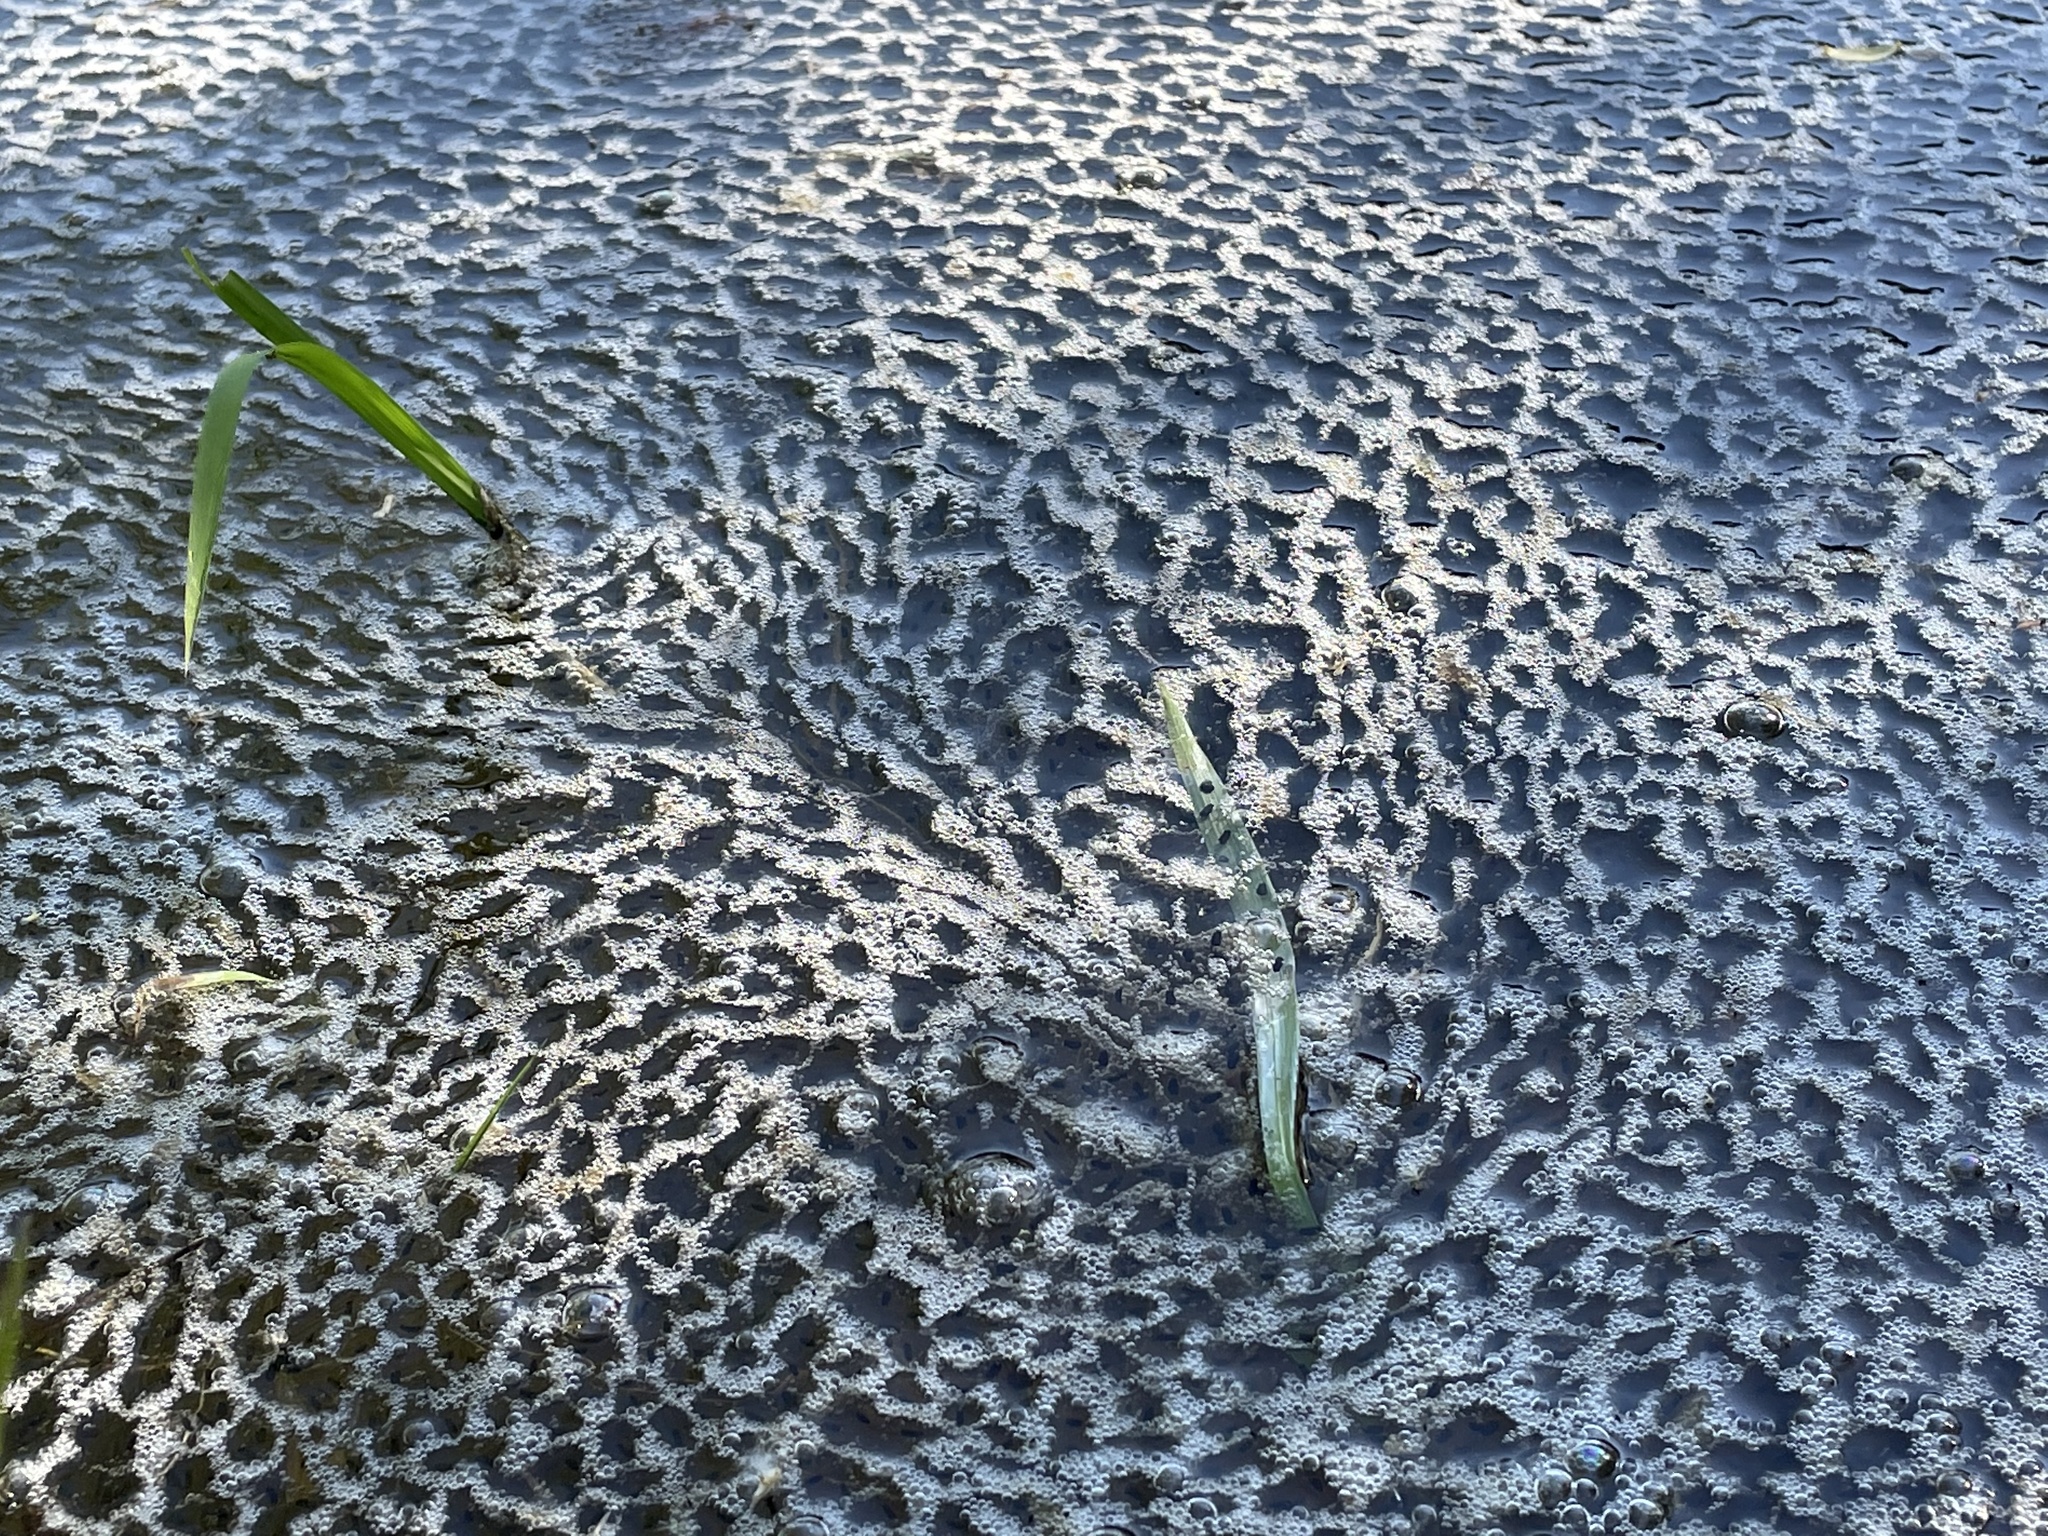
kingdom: Animalia
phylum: Chordata
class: Amphibia
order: Anura
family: Ranidae
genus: Lithobates
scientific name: Lithobates clamitans
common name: Green frog
